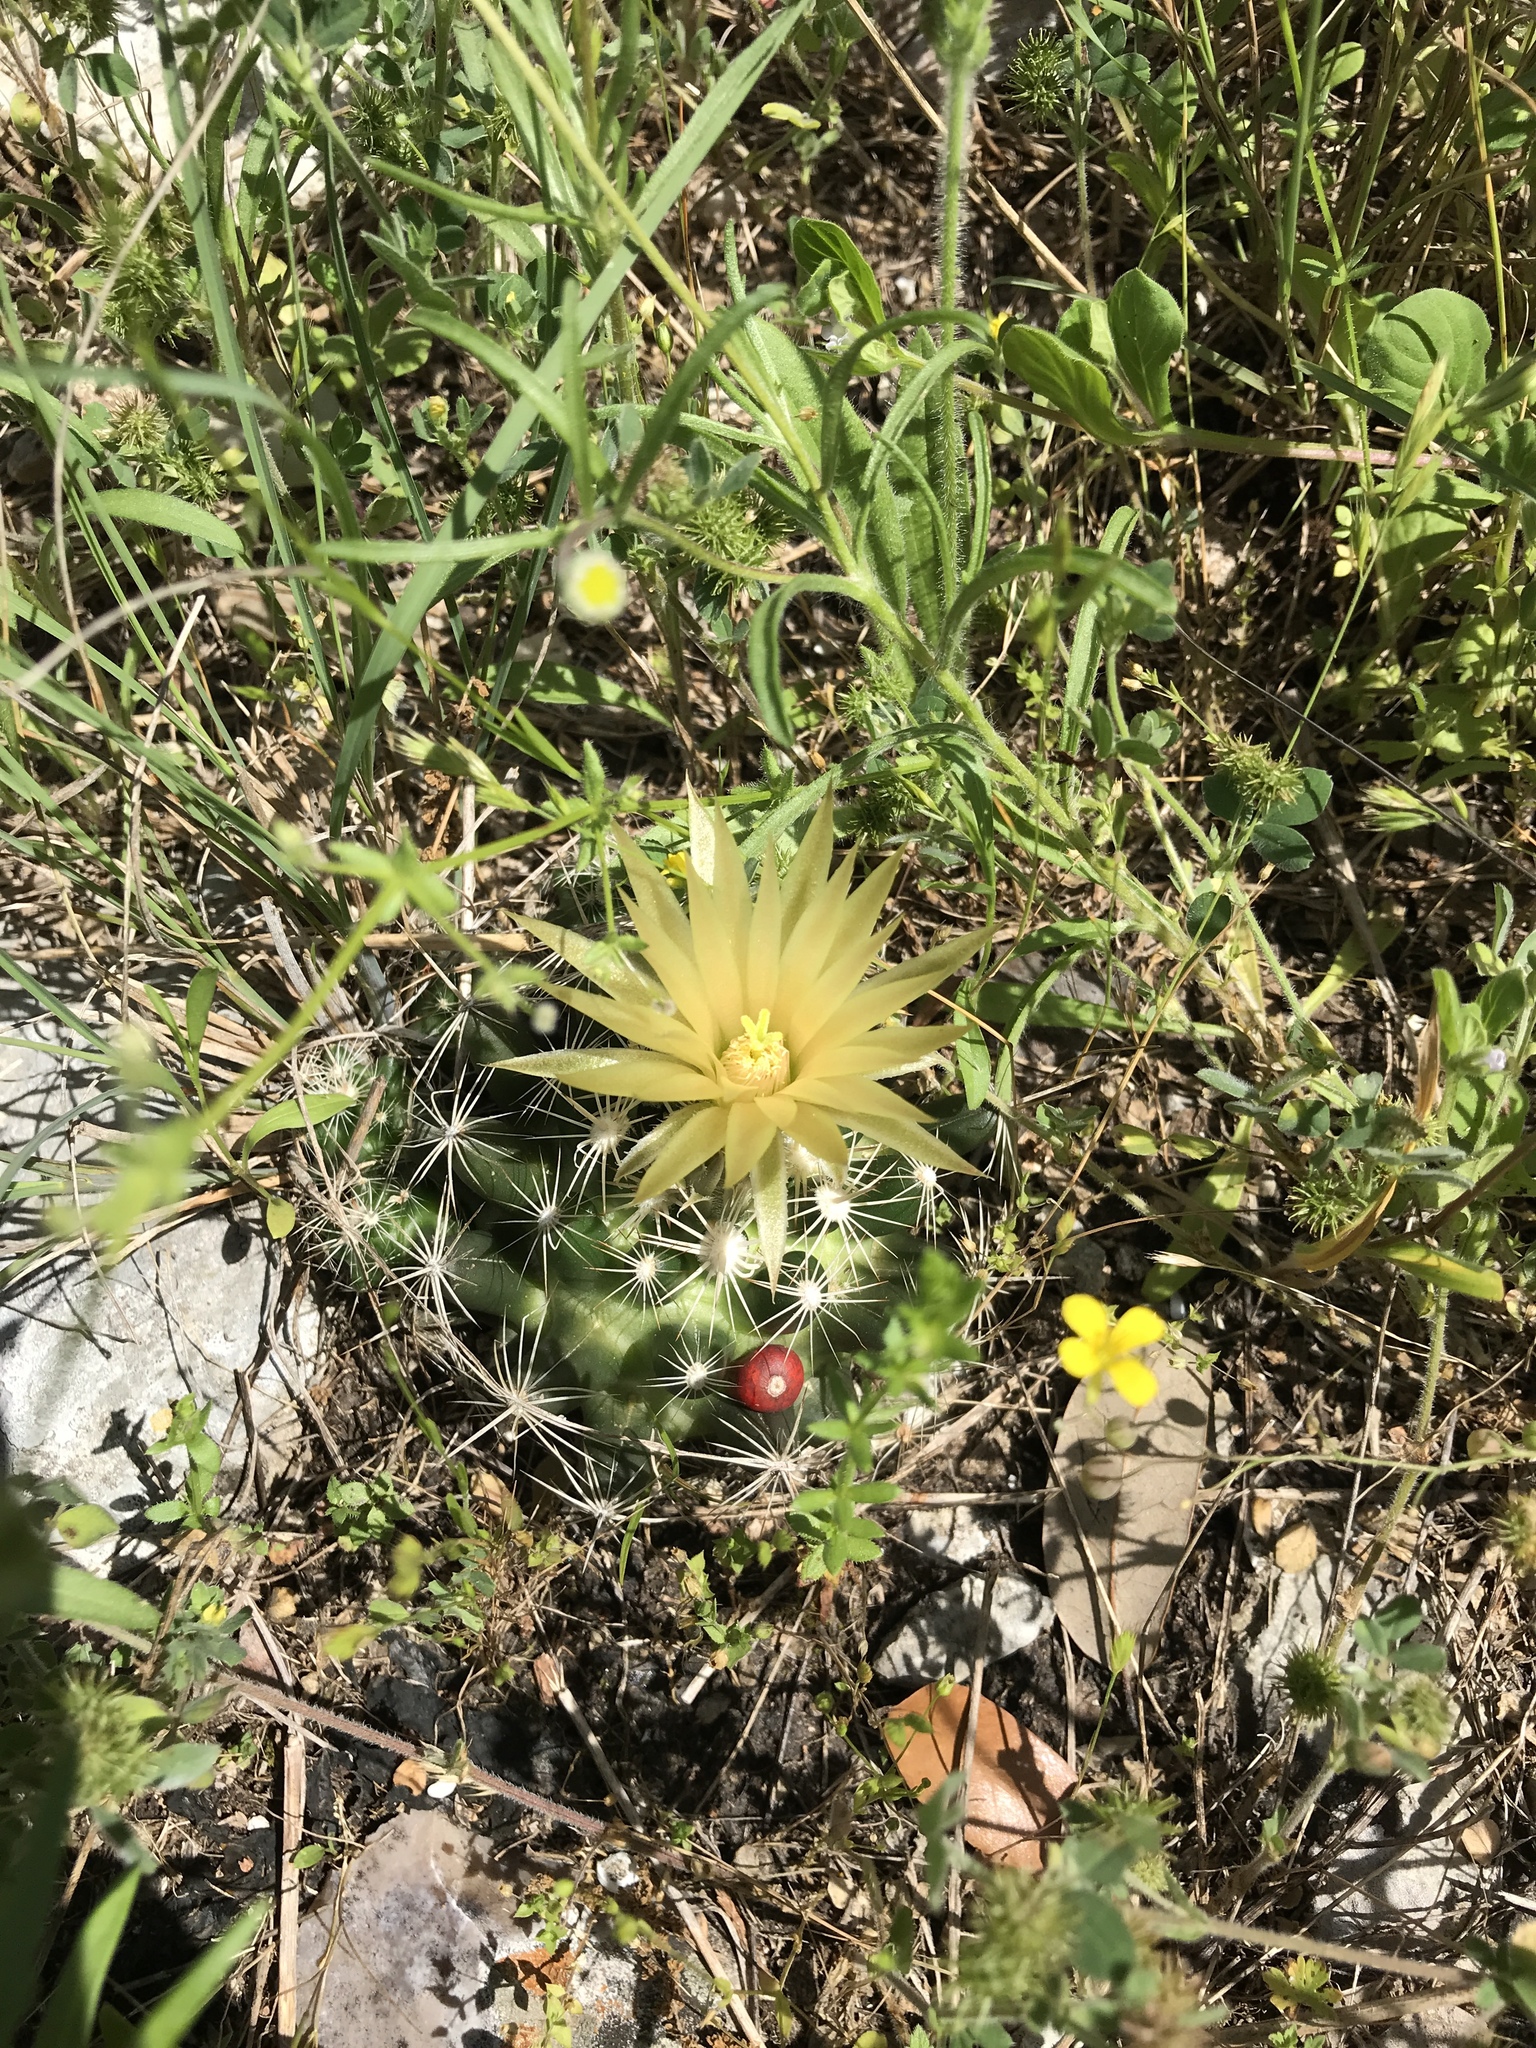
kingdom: Plantae
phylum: Tracheophyta
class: Magnoliopsida
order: Caryophyllales
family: Cactaceae
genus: Pelecyphora
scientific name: Pelecyphora missouriensis
